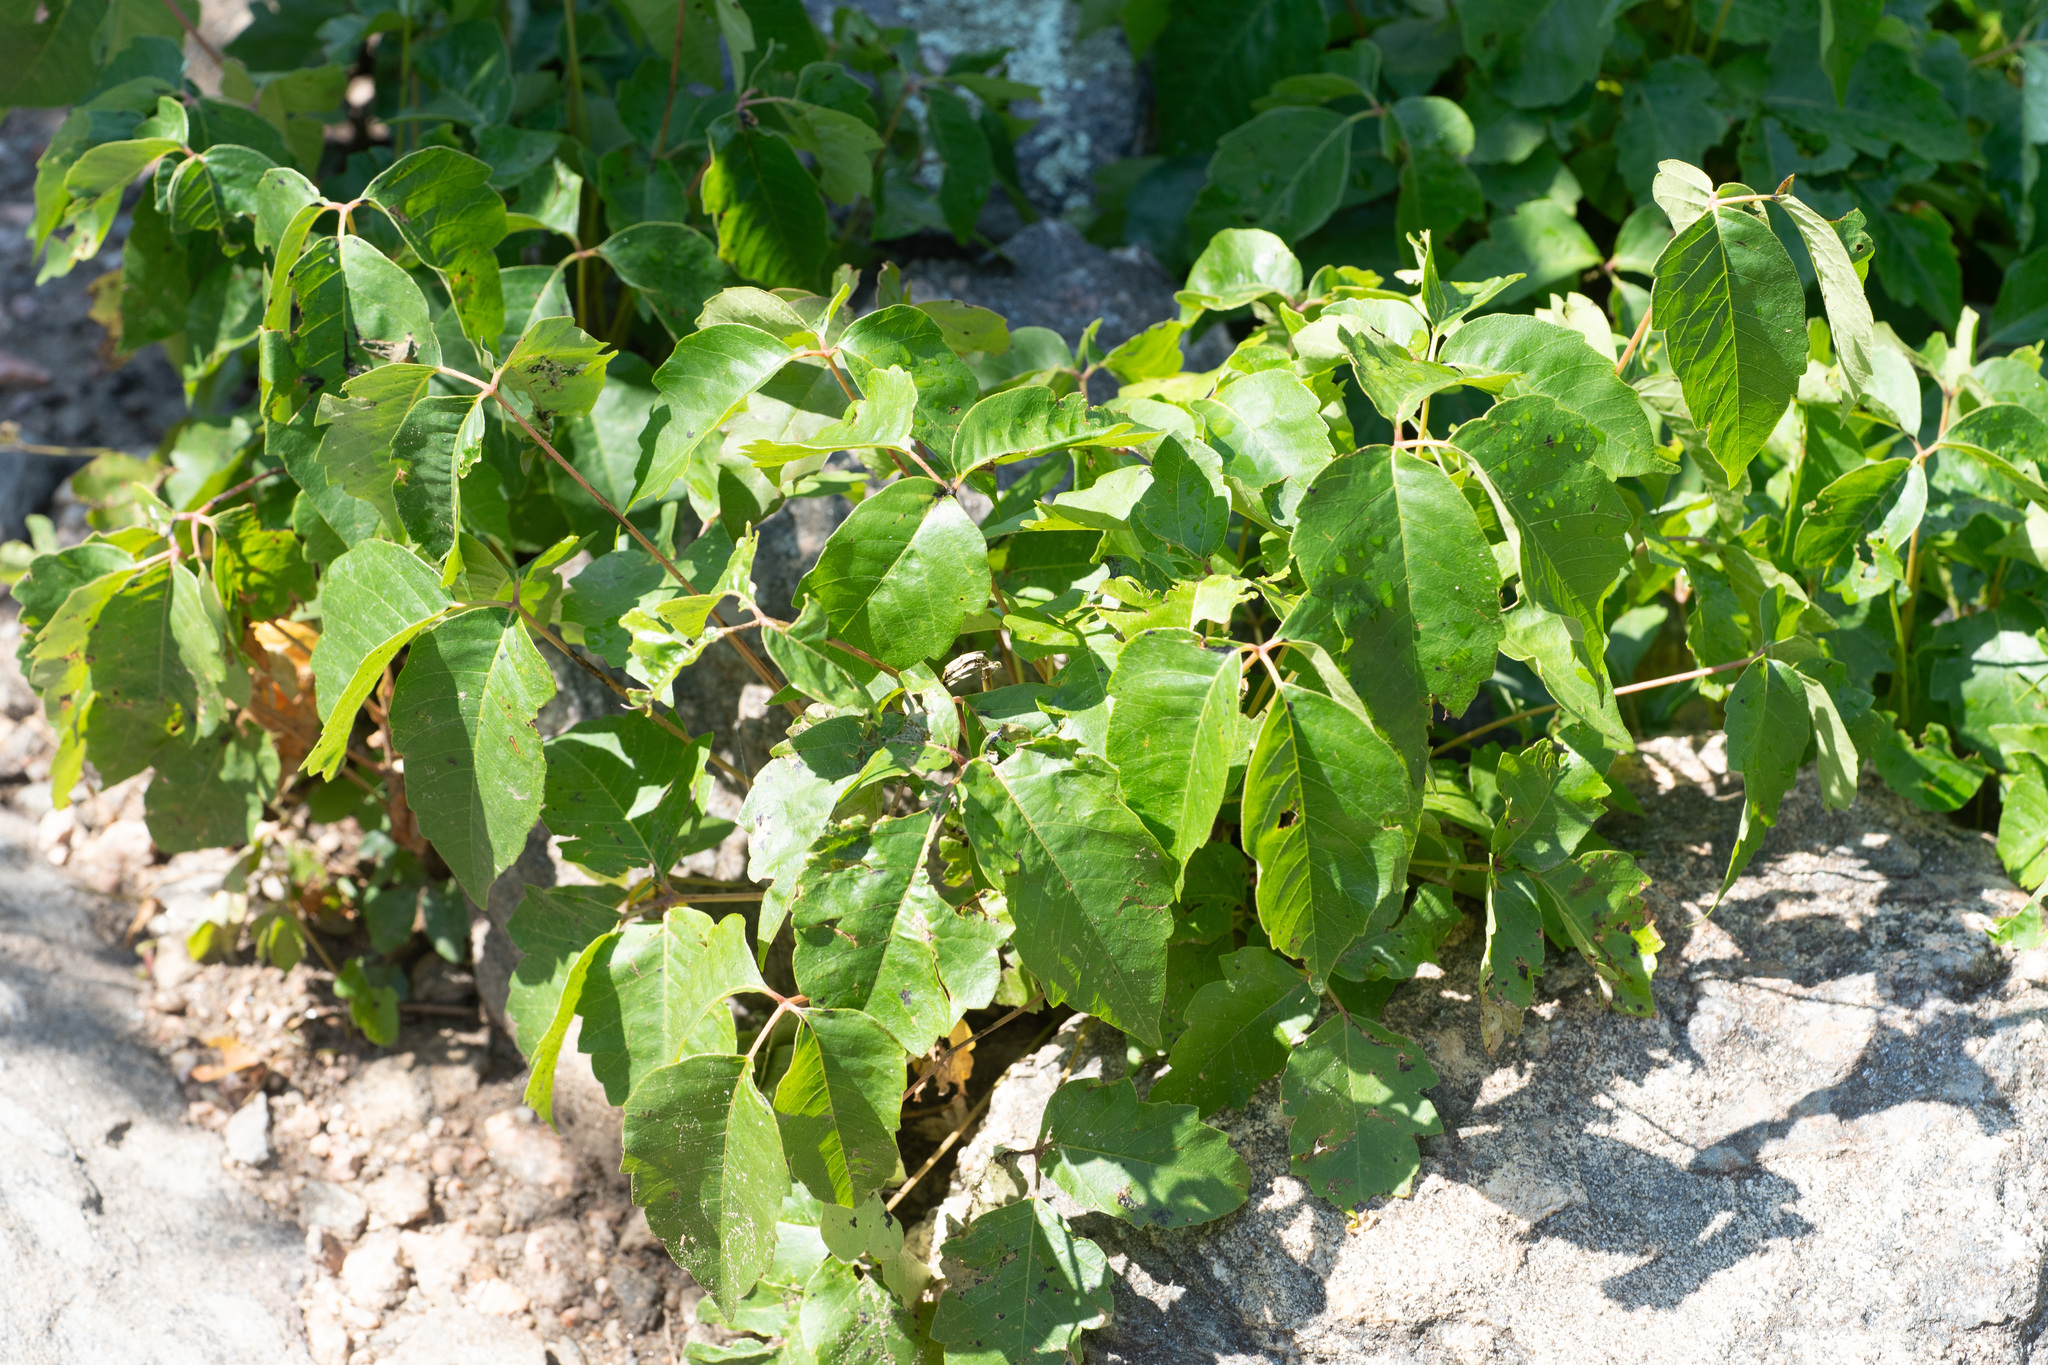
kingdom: Plantae
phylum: Tracheophyta
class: Magnoliopsida
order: Sapindales
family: Anacardiaceae
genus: Toxicodendron
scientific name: Toxicodendron rydbergii
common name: Rydberg's poison-ivy
